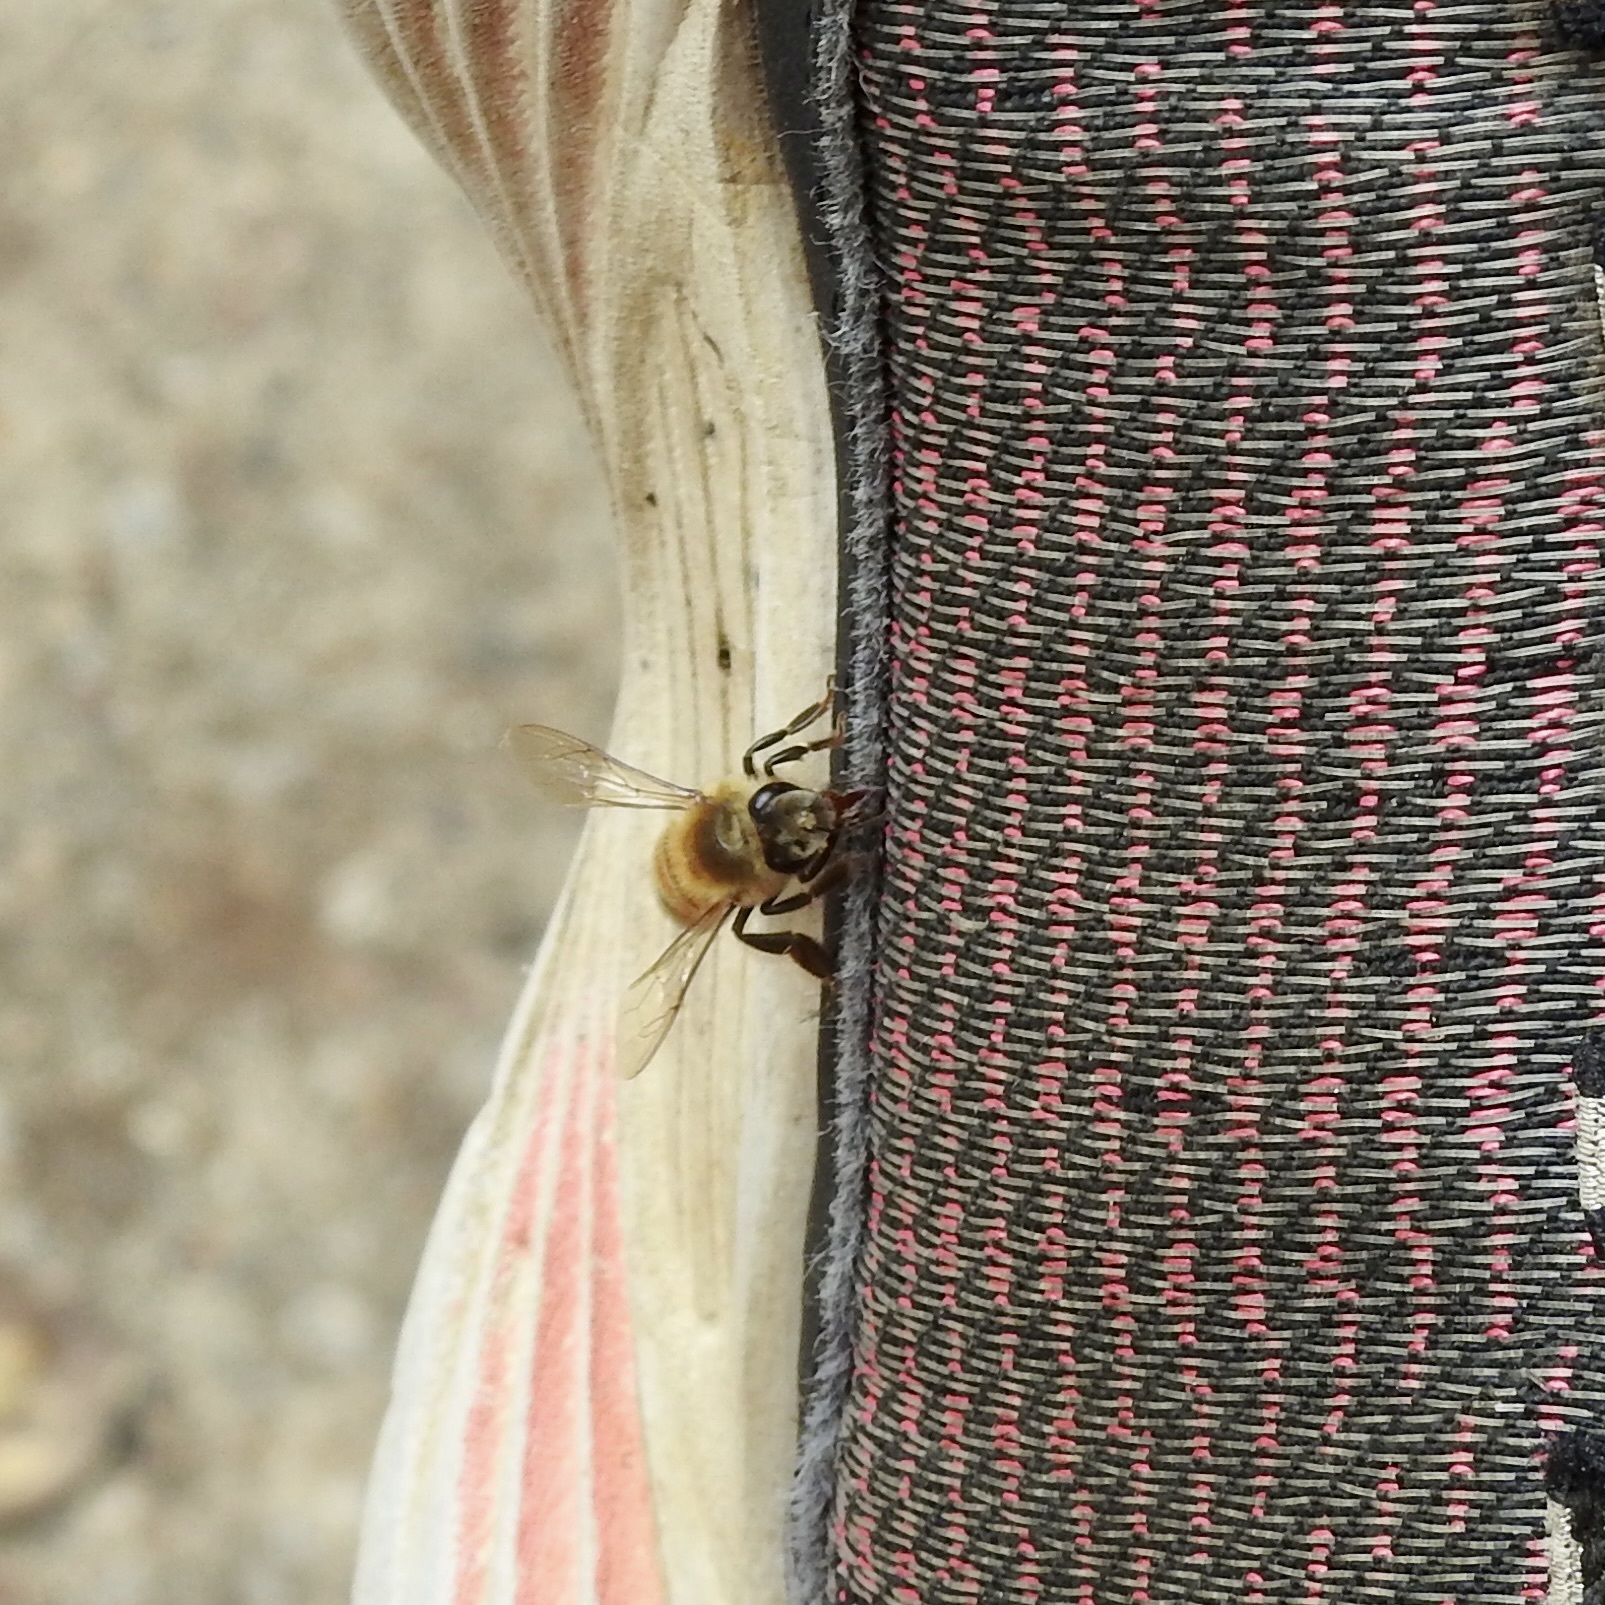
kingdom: Animalia
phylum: Arthropoda
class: Insecta
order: Hymenoptera
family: Apidae
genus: Apis
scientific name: Apis mellifera
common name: Honey bee
